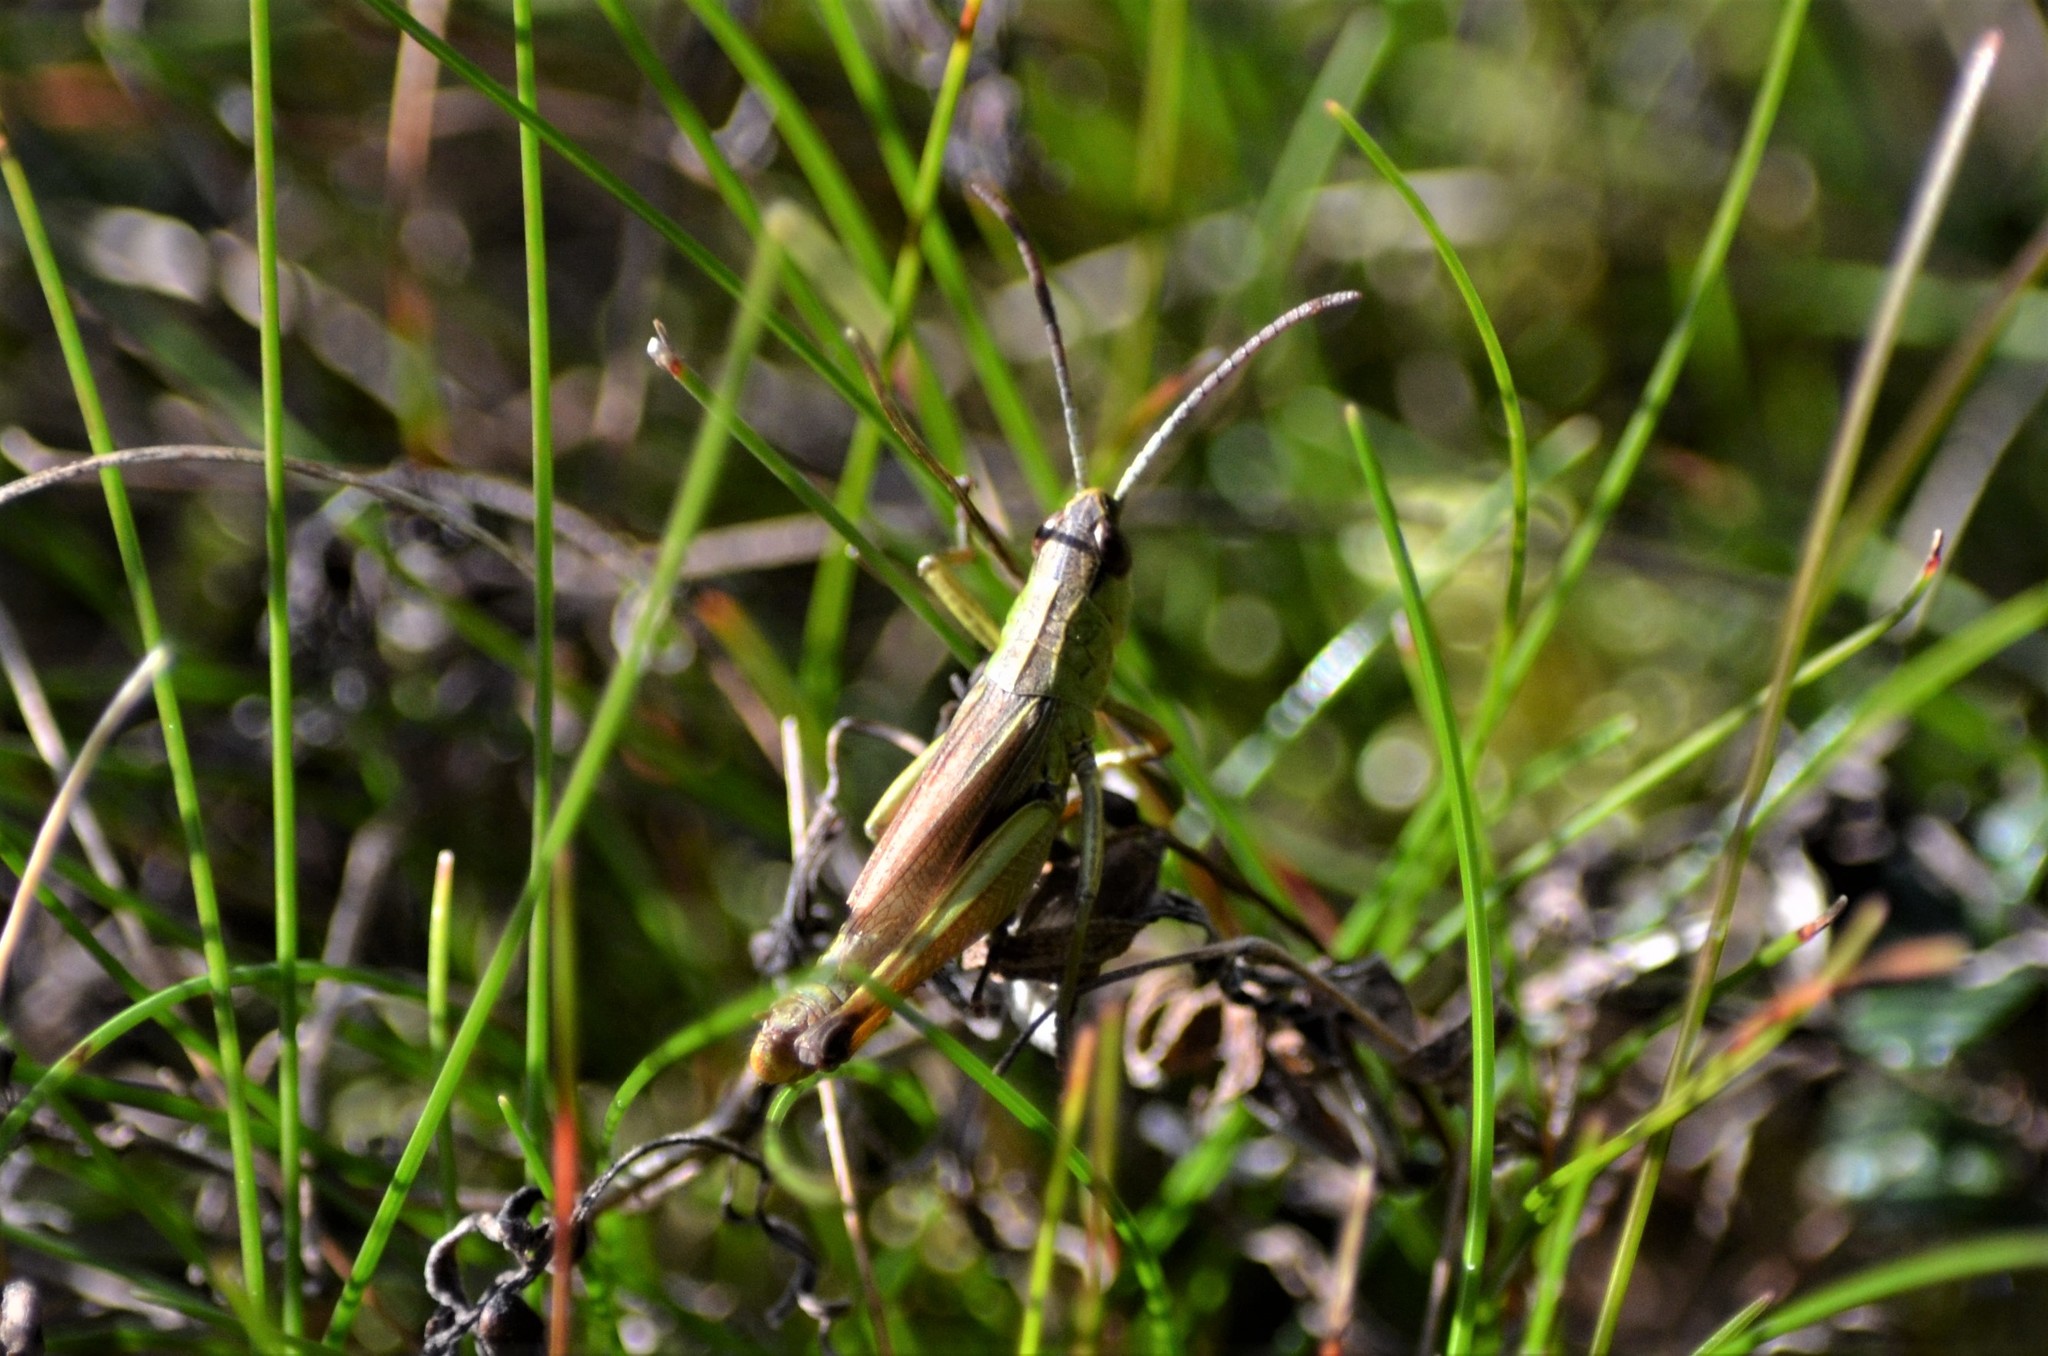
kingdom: Animalia
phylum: Arthropoda
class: Insecta
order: Orthoptera
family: Acrididae
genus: Pseudochorthippus
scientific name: Pseudochorthippus parallelus
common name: Meadow grasshopper
